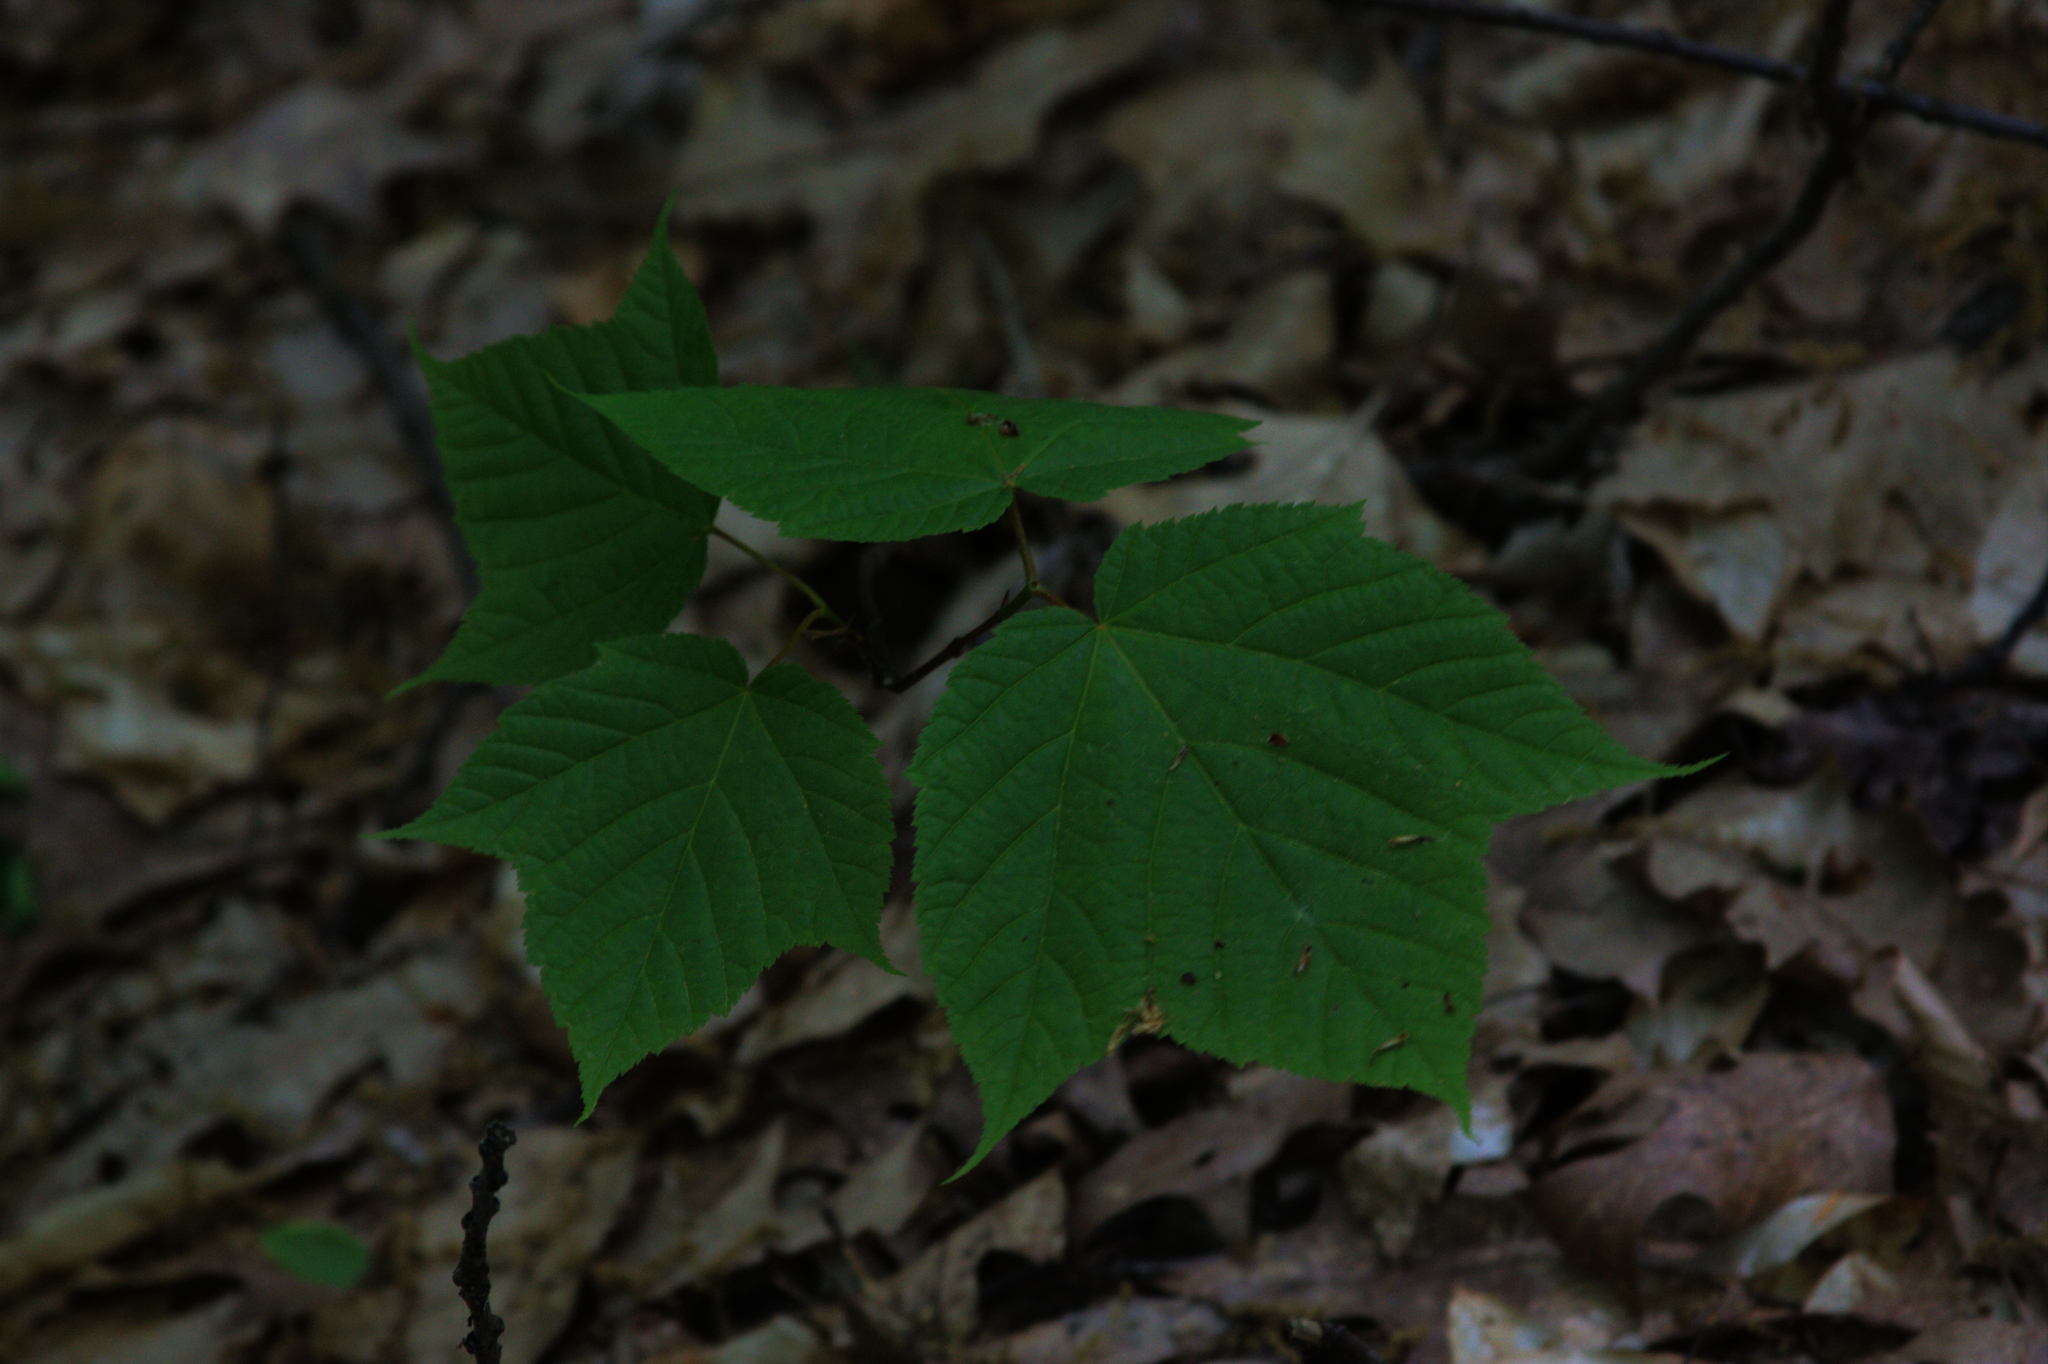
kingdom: Plantae
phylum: Tracheophyta
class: Magnoliopsida
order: Sapindales
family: Sapindaceae
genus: Acer
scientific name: Acer pensylvanicum
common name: Moosewood
